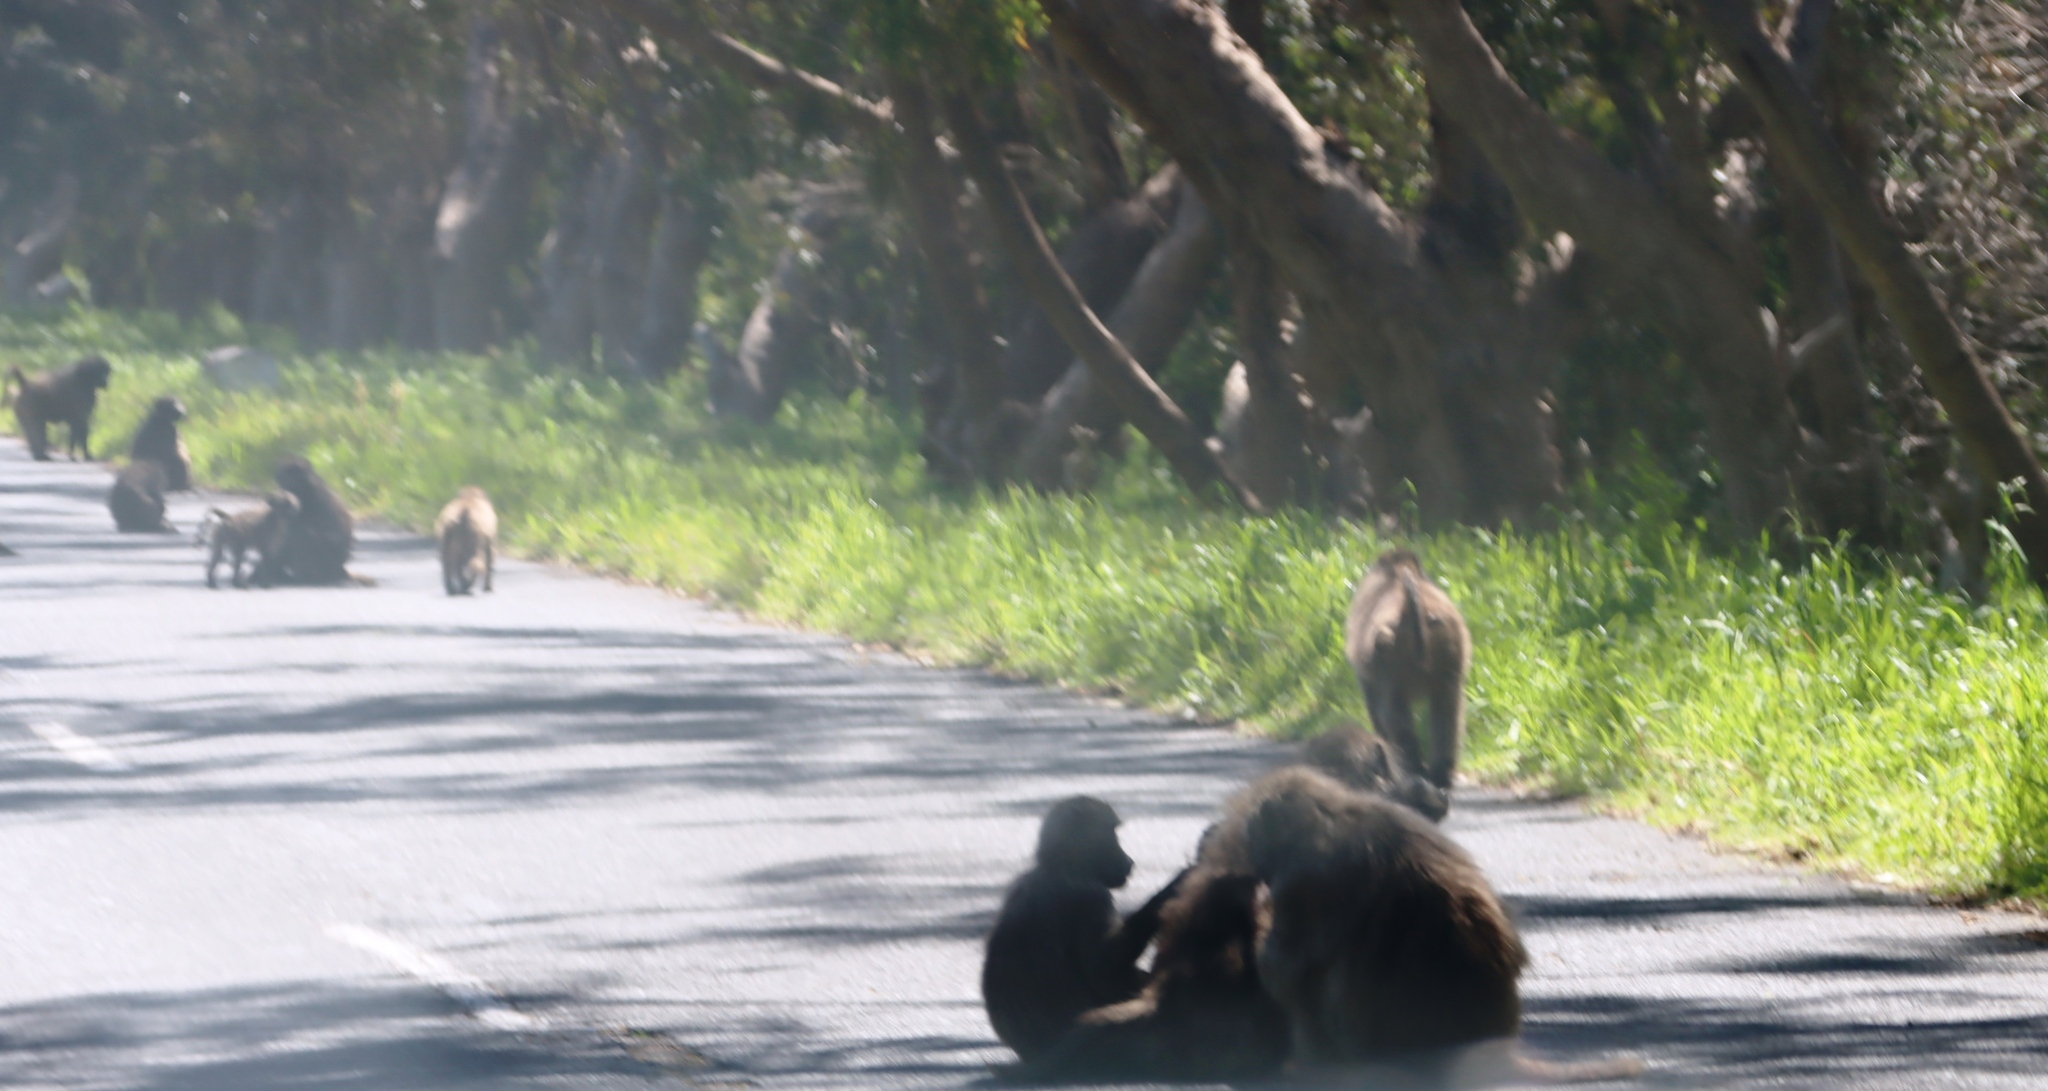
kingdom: Animalia
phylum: Chordata
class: Mammalia
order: Primates
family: Cercopithecidae
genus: Papio
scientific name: Papio ursinus
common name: Chacma baboon
